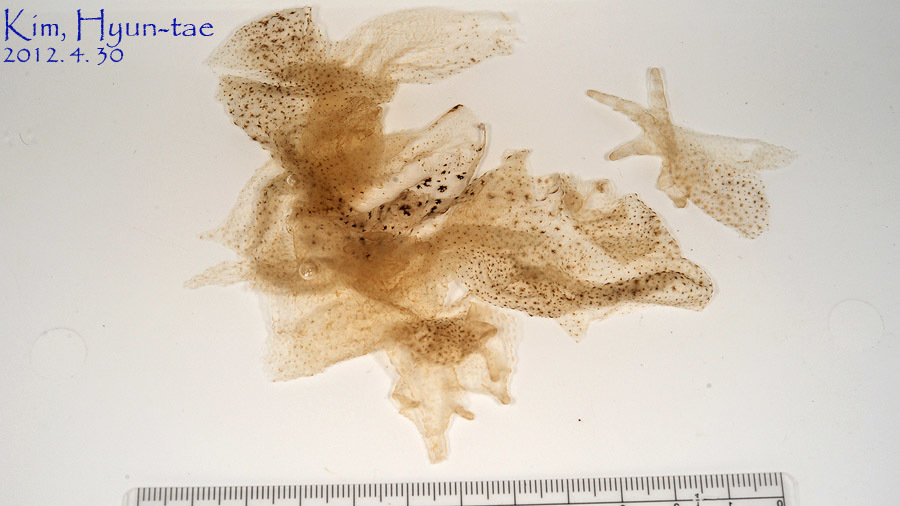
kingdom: Animalia
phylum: Chordata
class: Amphibia
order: Anura
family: Bufonidae
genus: Bufo
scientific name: Bufo gargarizans
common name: Asiatic toad
